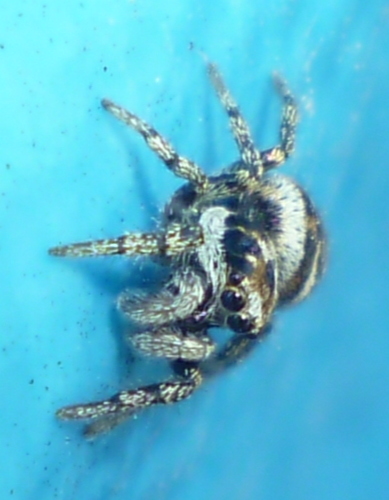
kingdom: Animalia
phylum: Arthropoda
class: Arachnida
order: Araneae
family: Salticidae
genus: Salticus
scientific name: Salticus scenicus
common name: Zebra jumper
